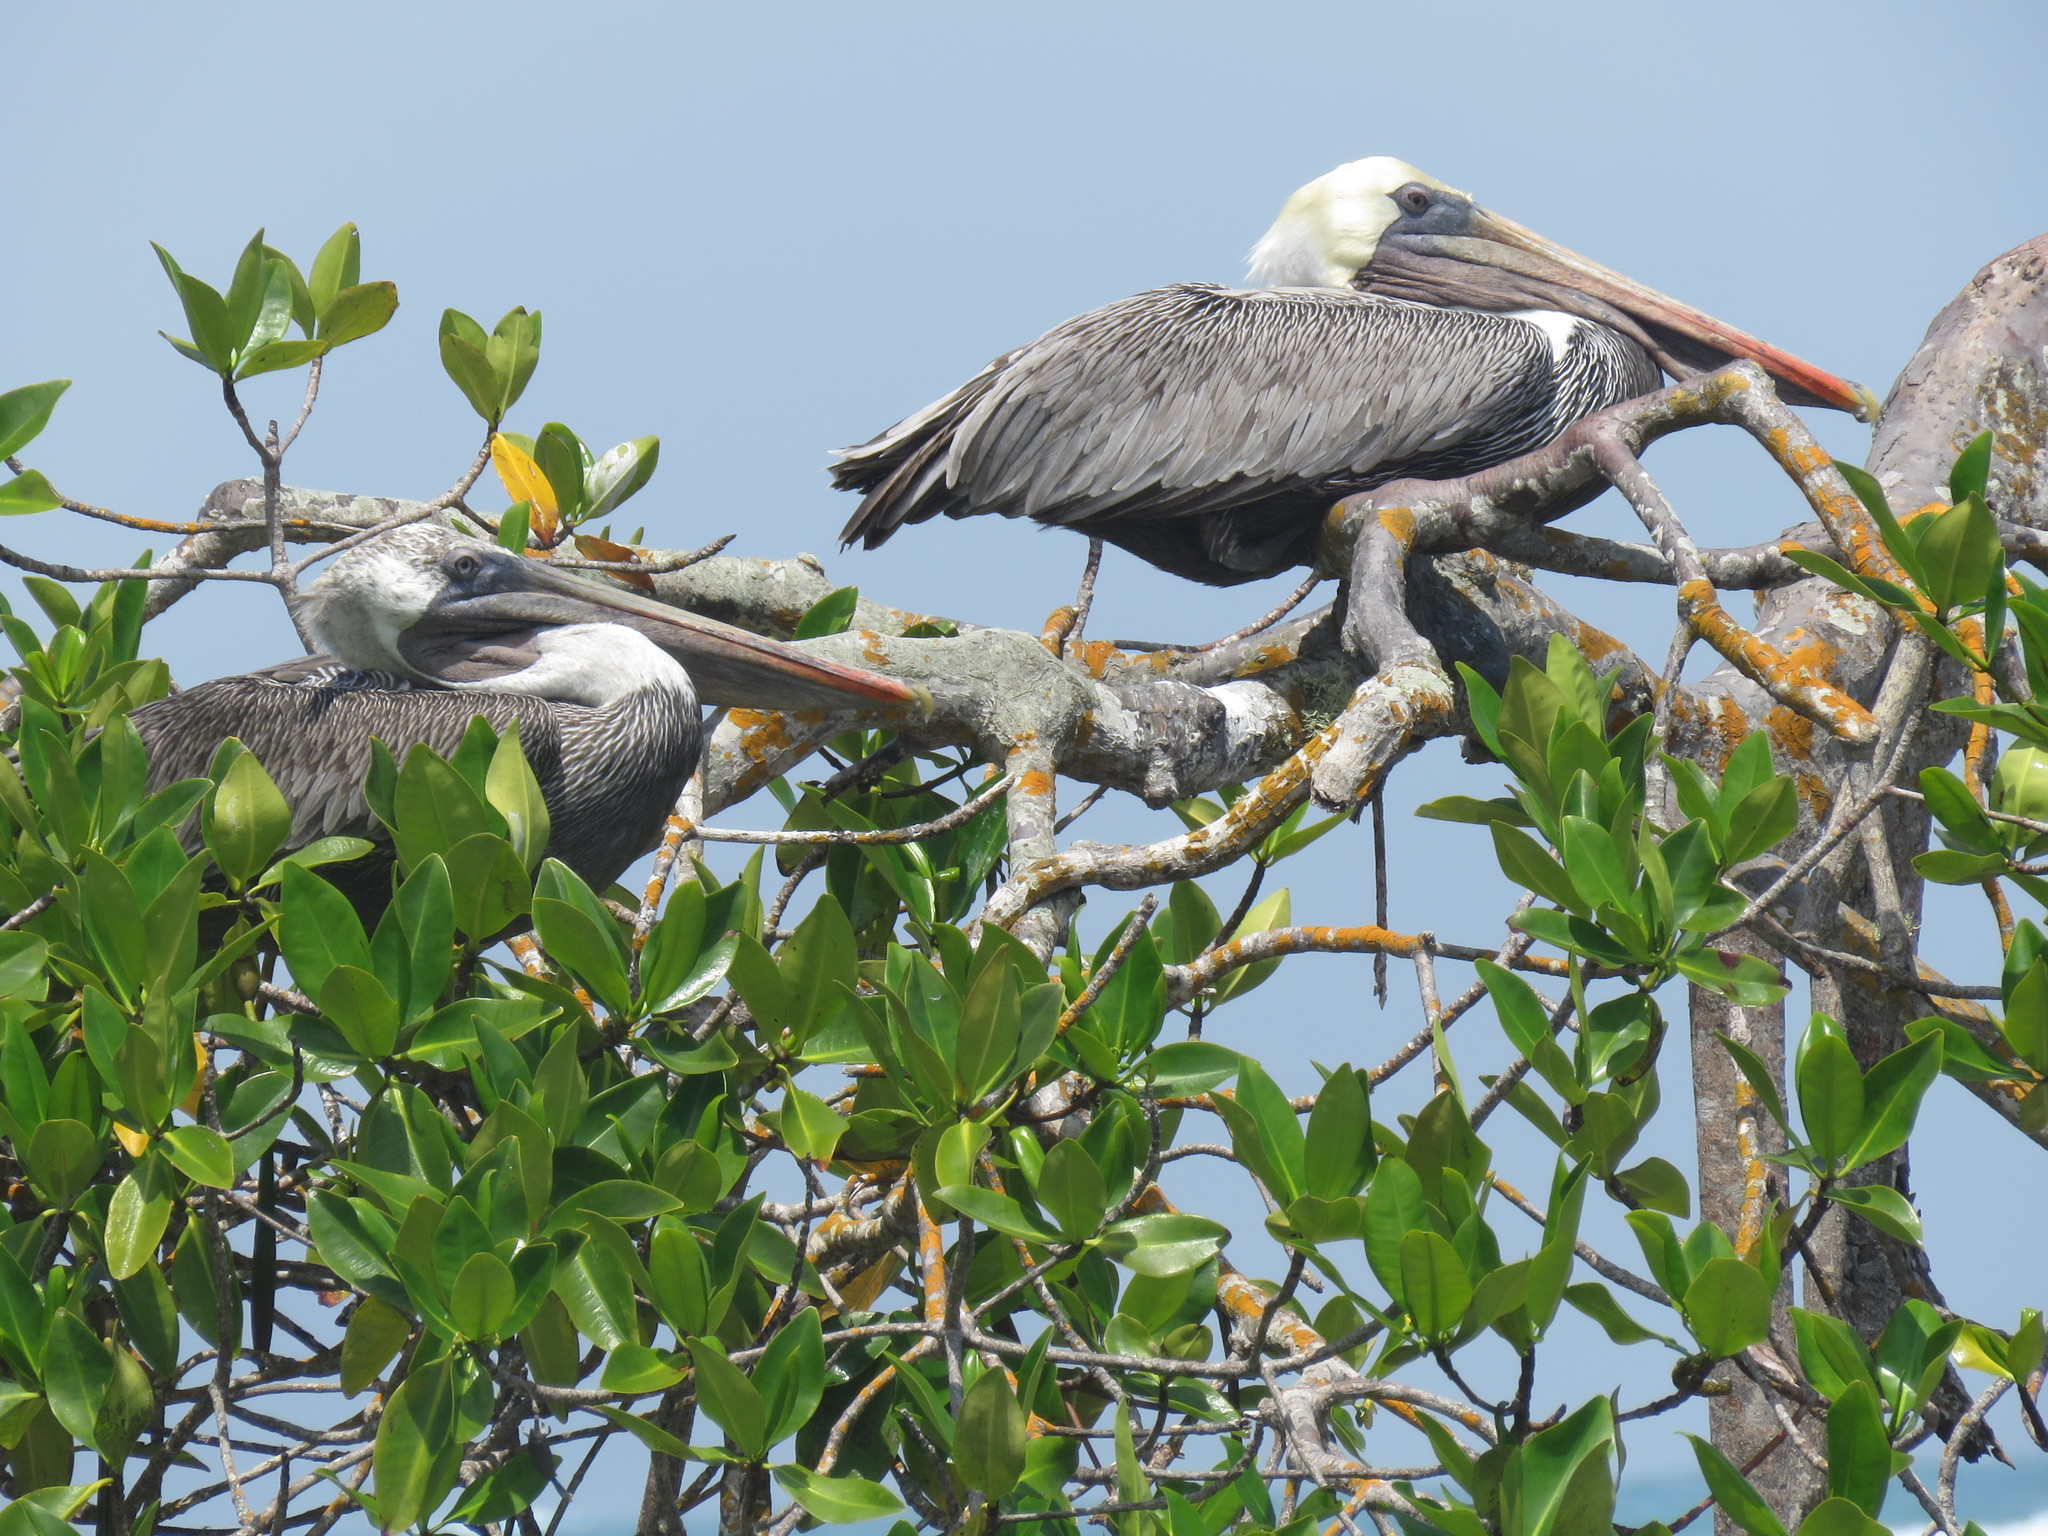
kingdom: Animalia
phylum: Chordata
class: Aves
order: Pelecaniformes
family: Pelecanidae
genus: Pelecanus
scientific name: Pelecanus occidentalis
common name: Brown pelican
